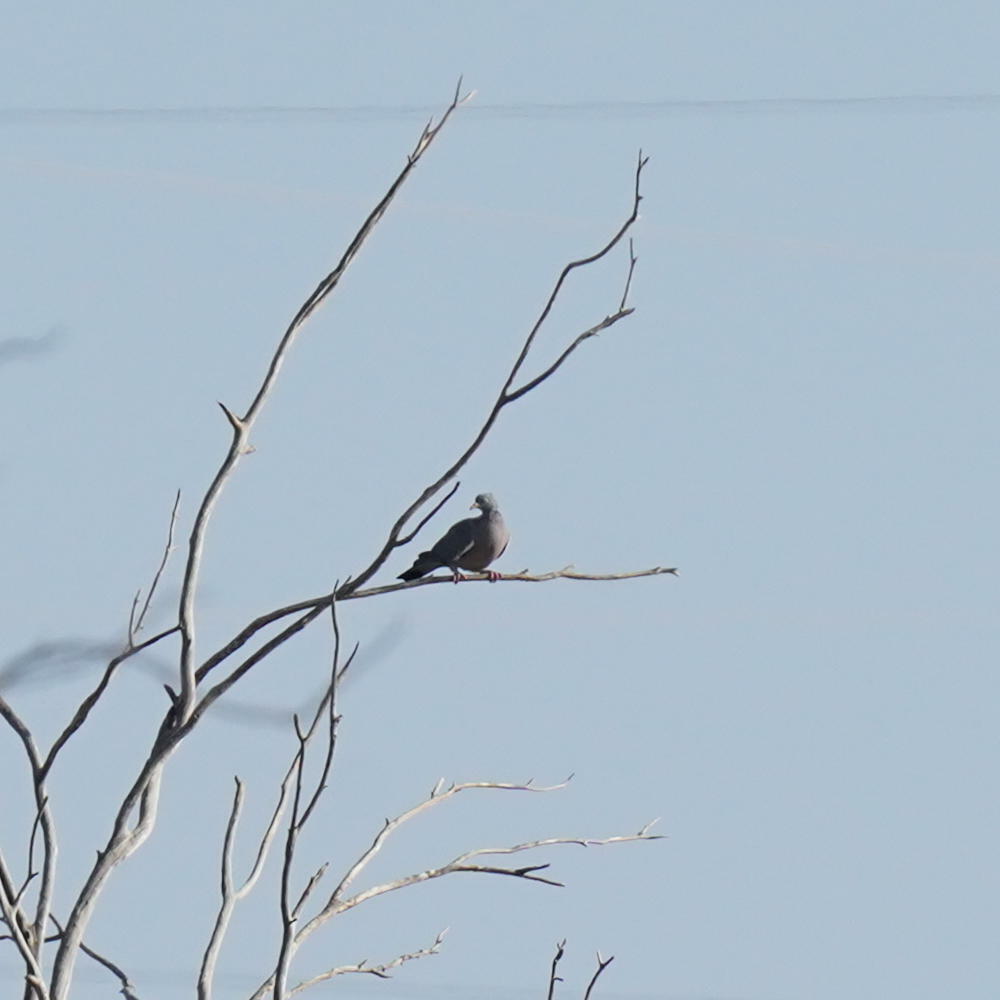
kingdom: Animalia
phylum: Chordata
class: Aves
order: Columbiformes
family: Columbidae
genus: Columba
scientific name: Columba palumbus
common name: Common wood pigeon
